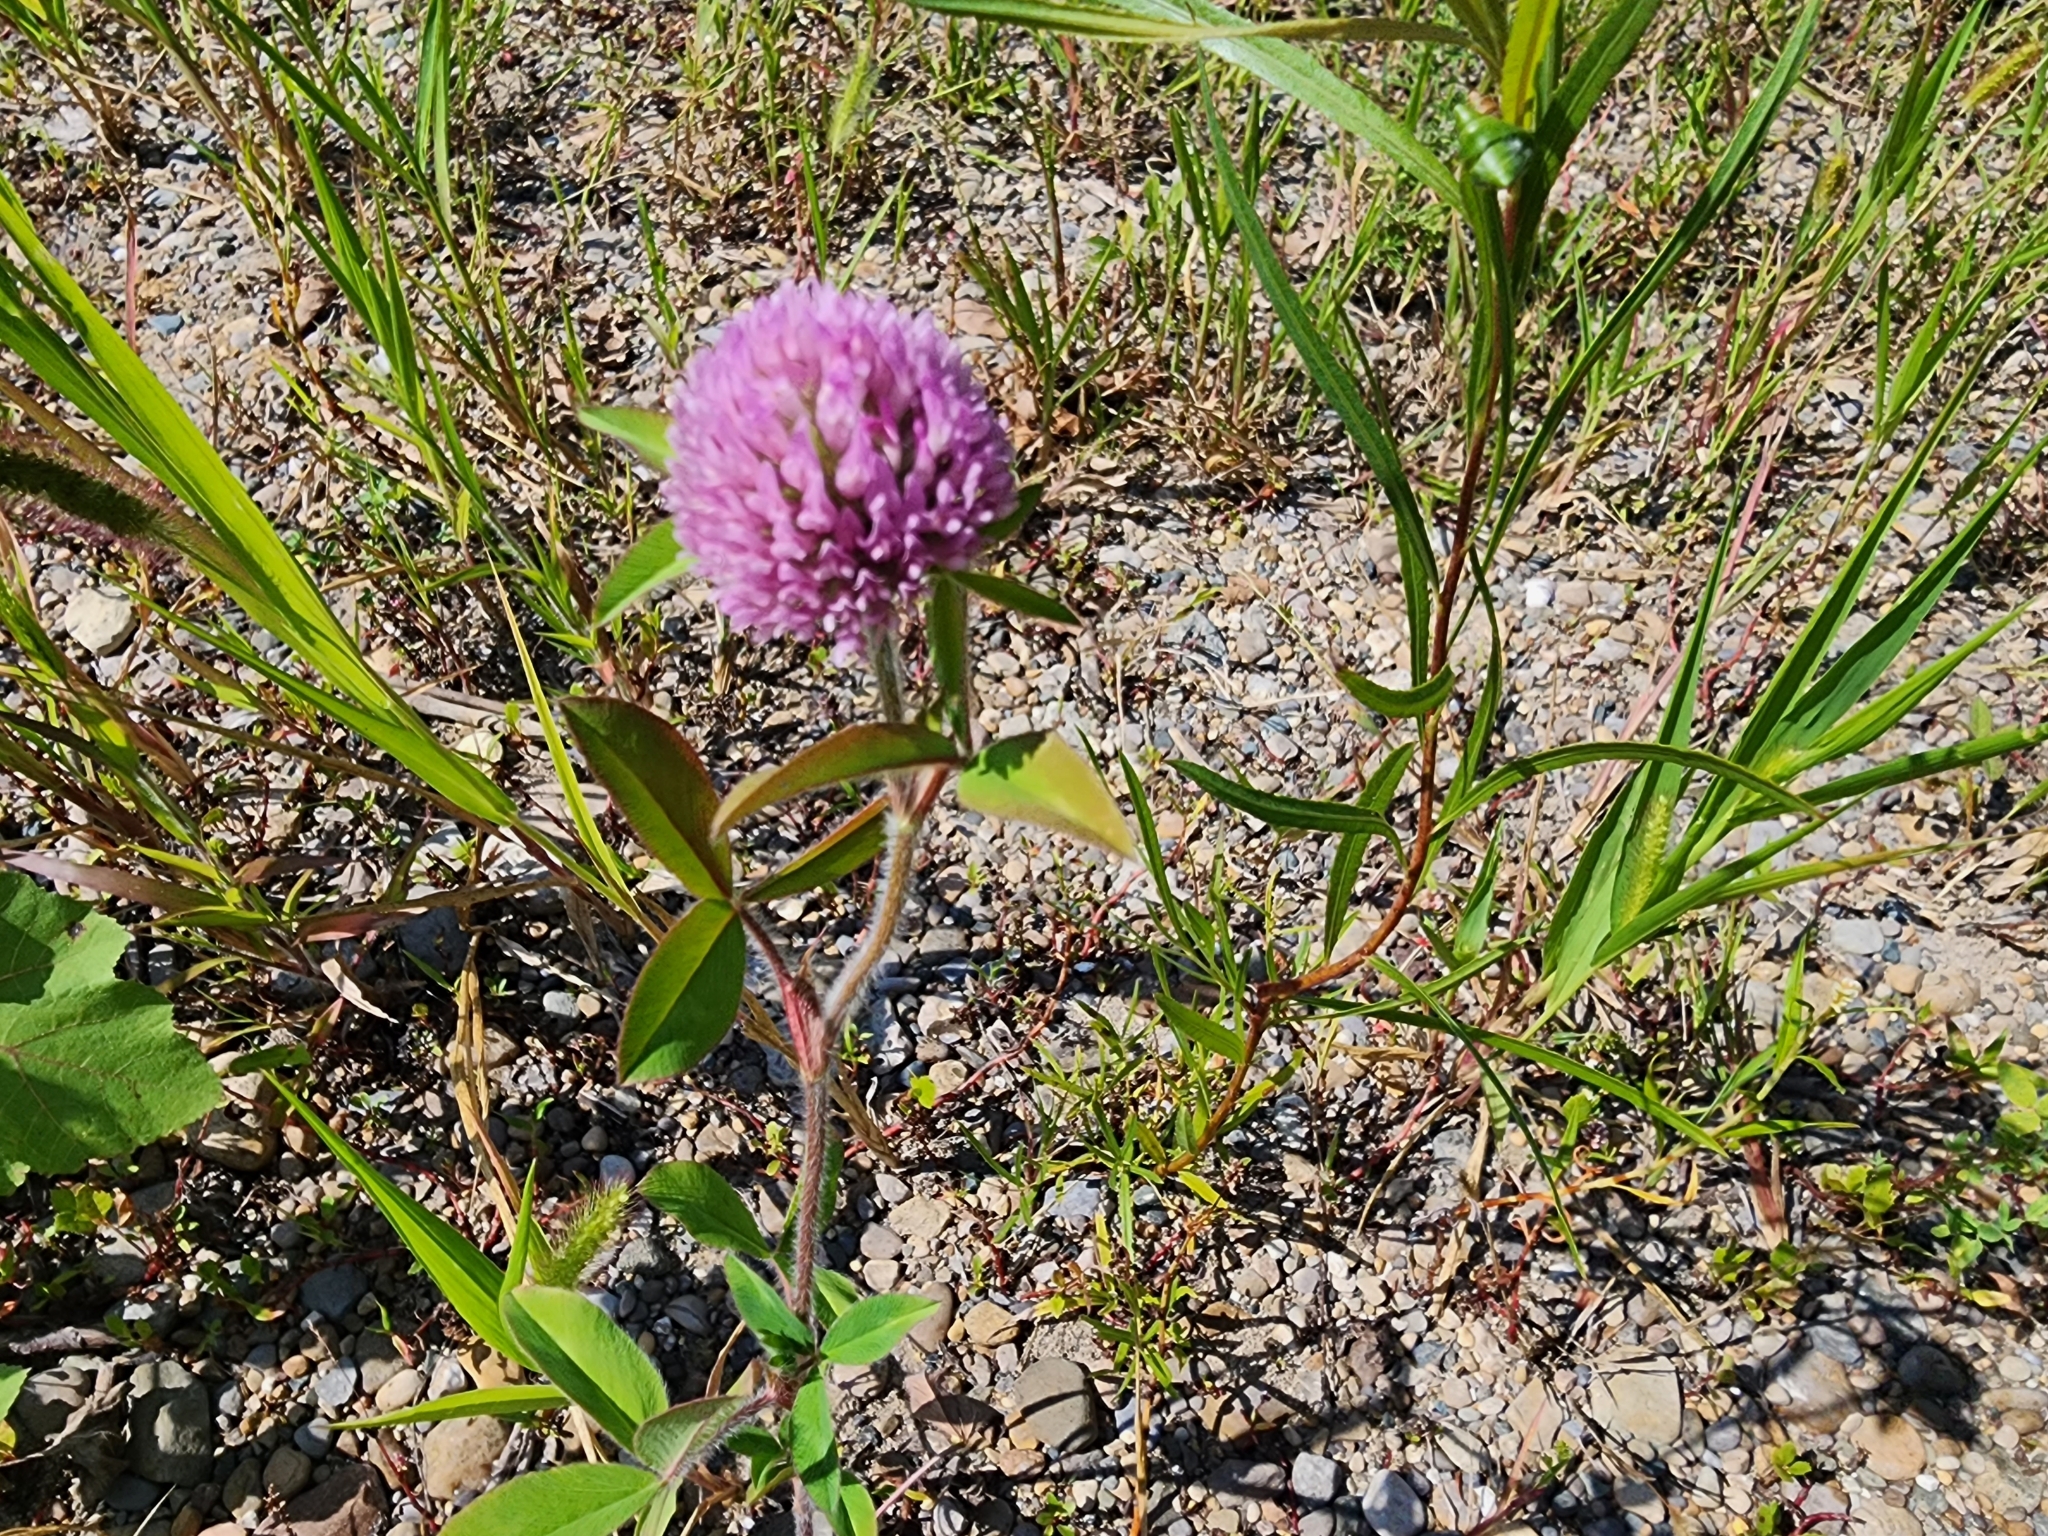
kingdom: Plantae
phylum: Tracheophyta
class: Magnoliopsida
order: Fabales
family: Fabaceae
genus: Trifolium
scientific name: Trifolium pratense
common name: Red clover
